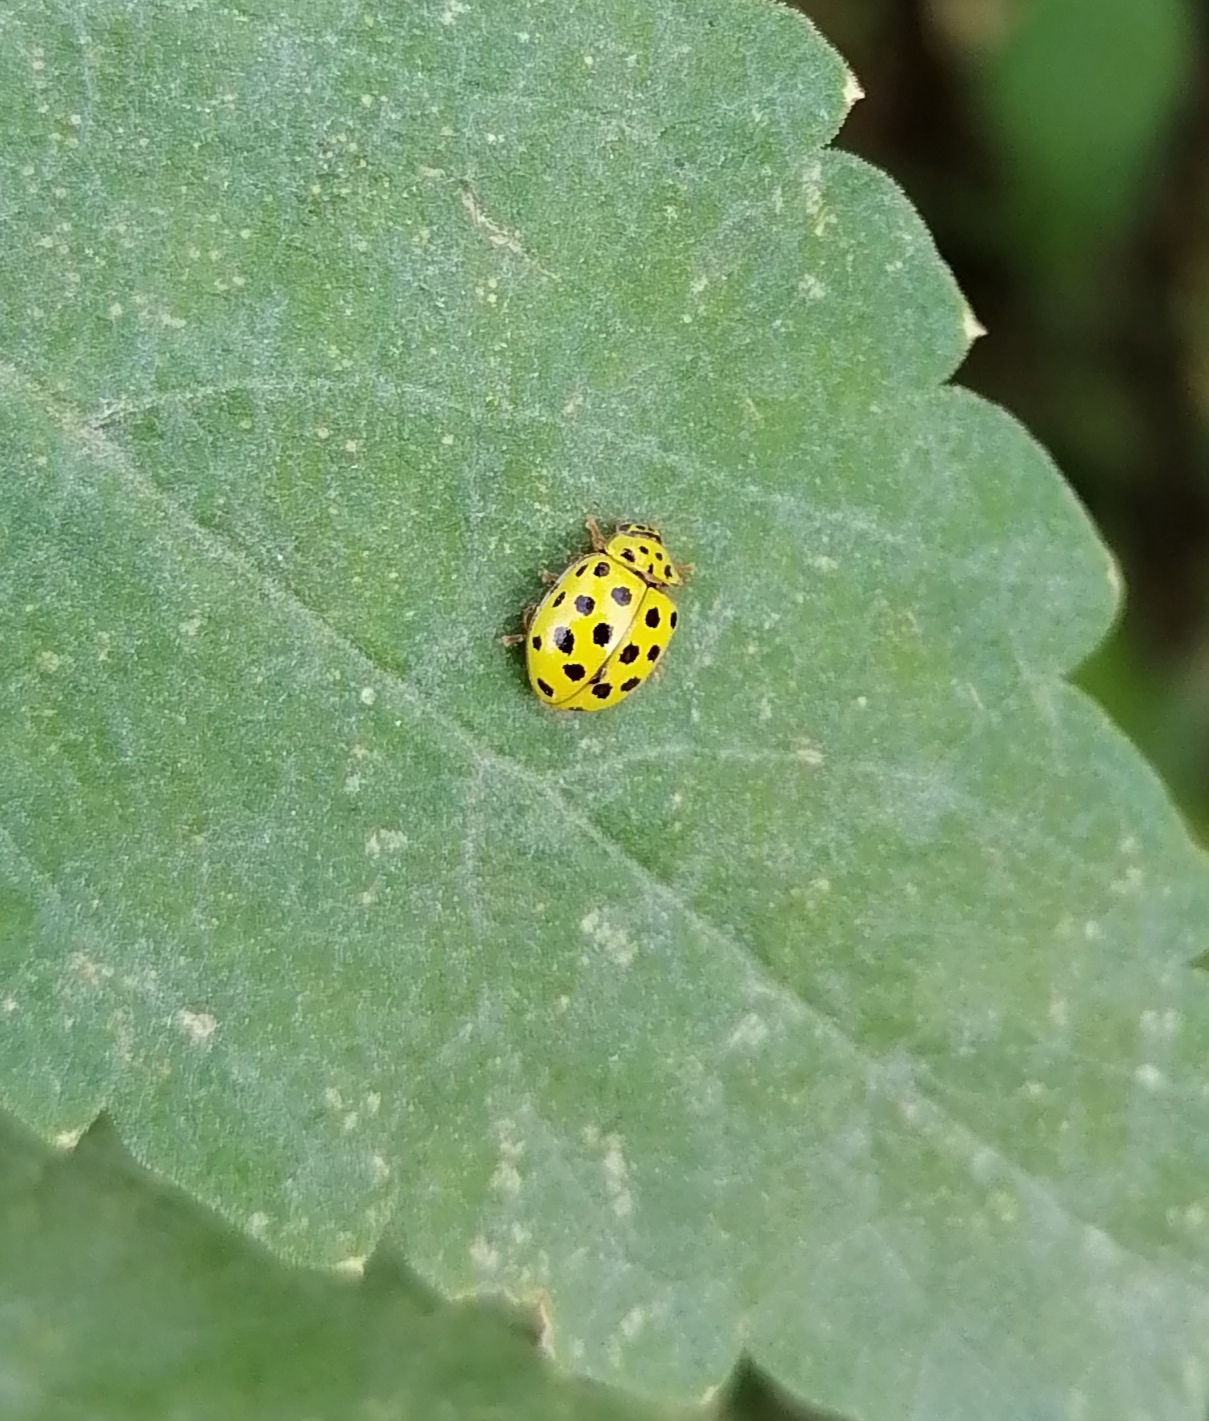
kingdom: Animalia
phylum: Arthropoda
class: Insecta
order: Coleoptera
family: Coccinellidae
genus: Psyllobora
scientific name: Psyllobora vigintiduopunctata
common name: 22-spot ladybird
